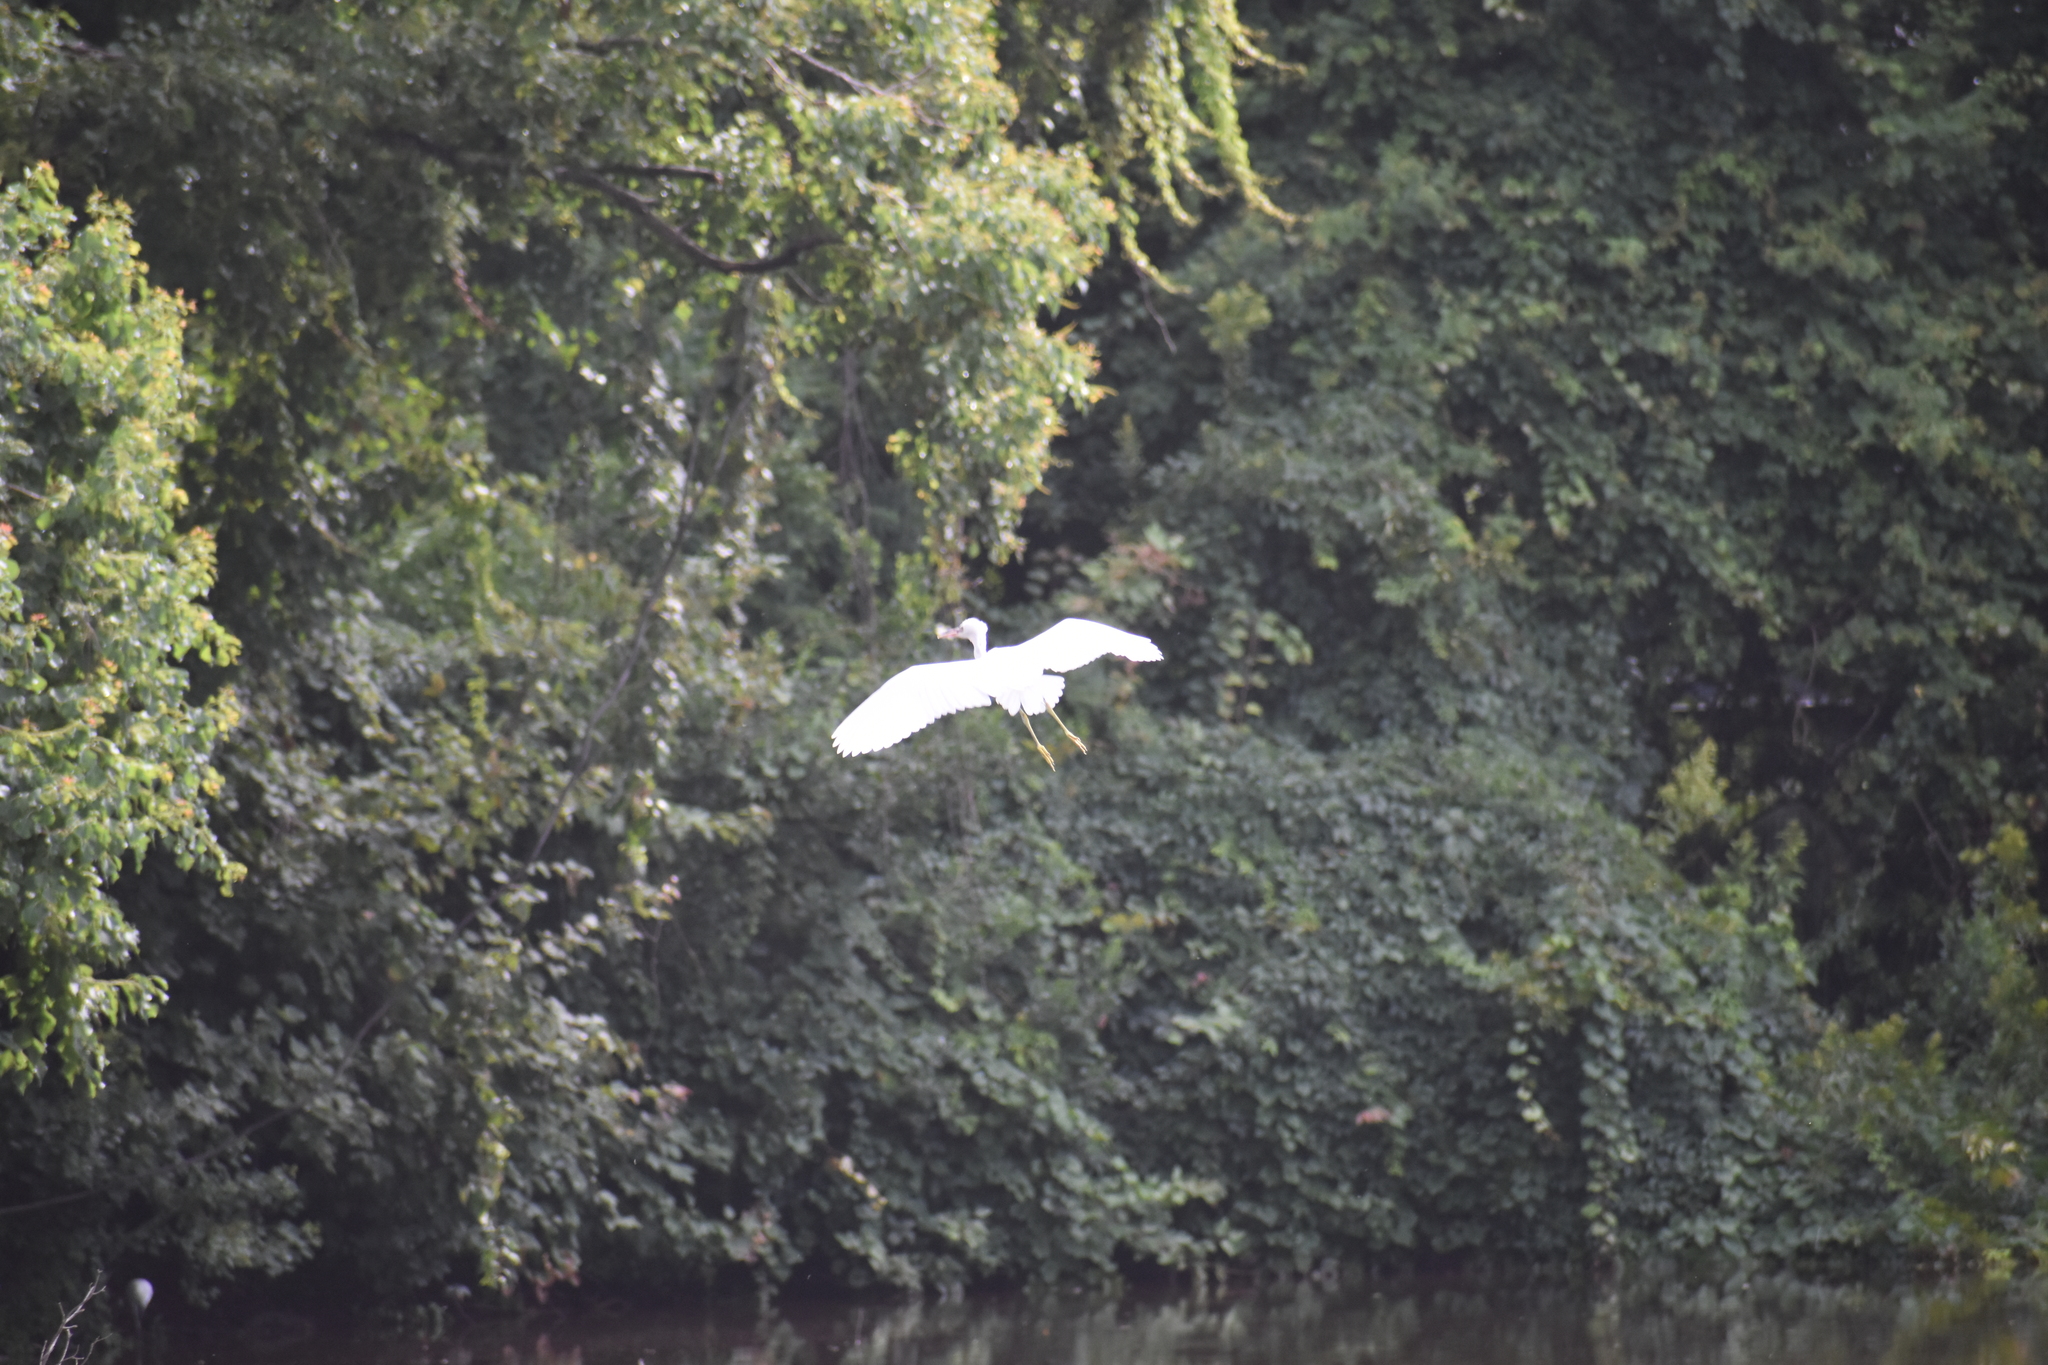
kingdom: Animalia
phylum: Chordata
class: Aves
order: Pelecaniformes
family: Ardeidae
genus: Egretta
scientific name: Egretta thula
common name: Snowy egret
